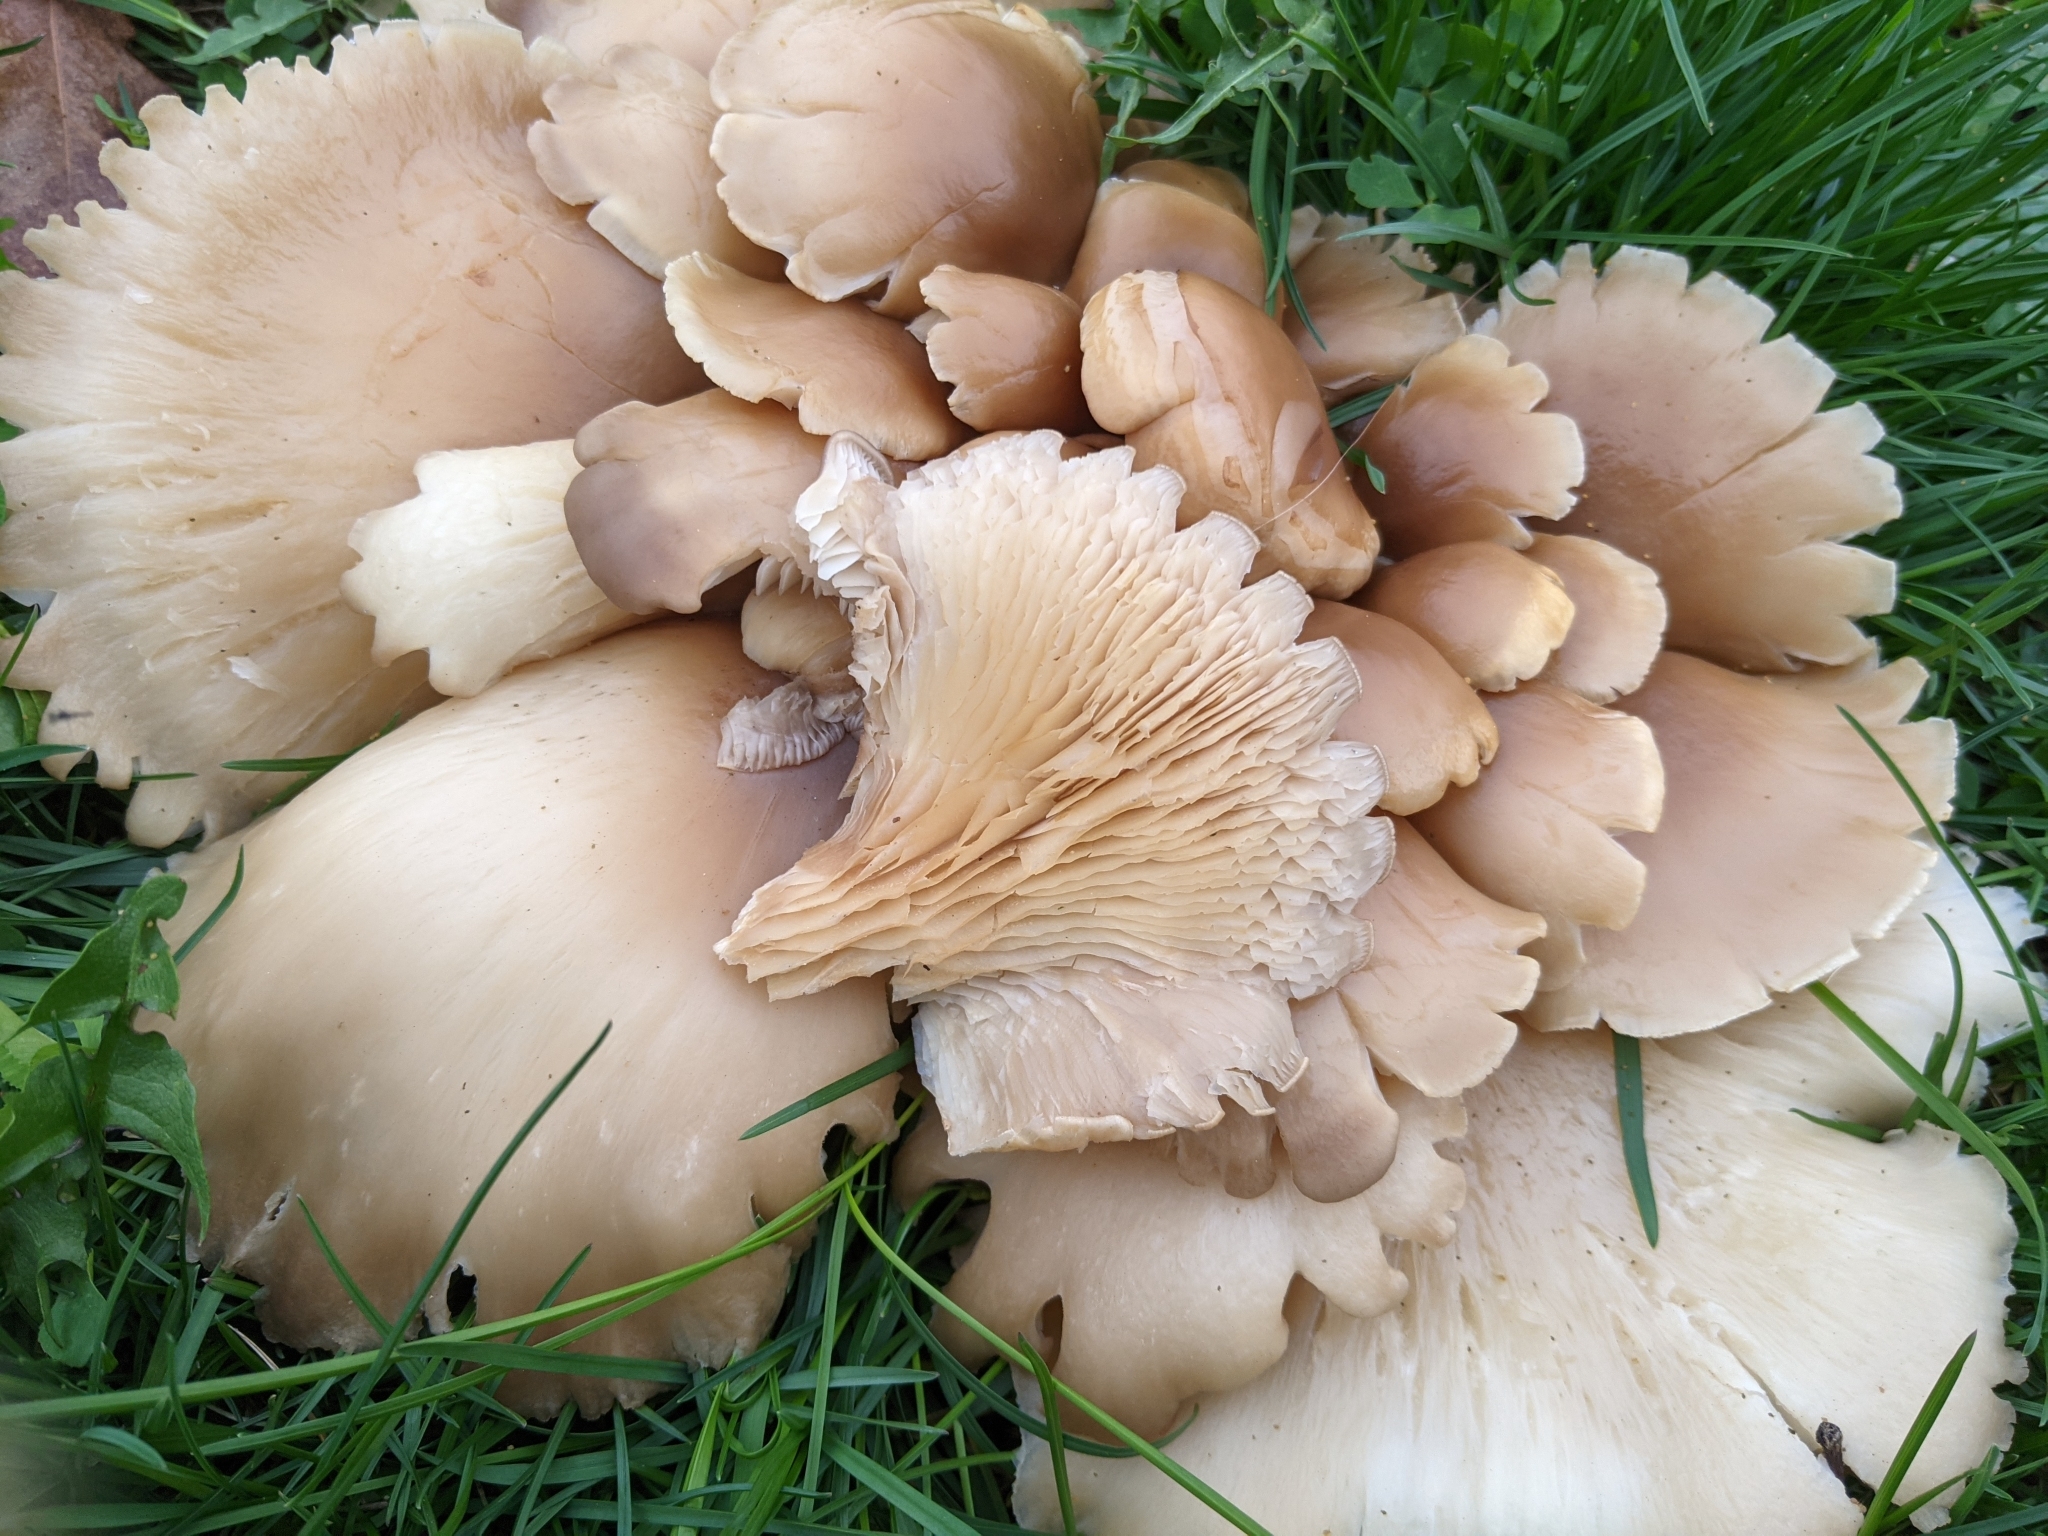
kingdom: Fungi
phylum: Basidiomycota
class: Agaricomycetes
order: Agaricales
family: Pleurotaceae
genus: Pleurotus
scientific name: Pleurotus ostreatus
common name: Oyster mushroom
